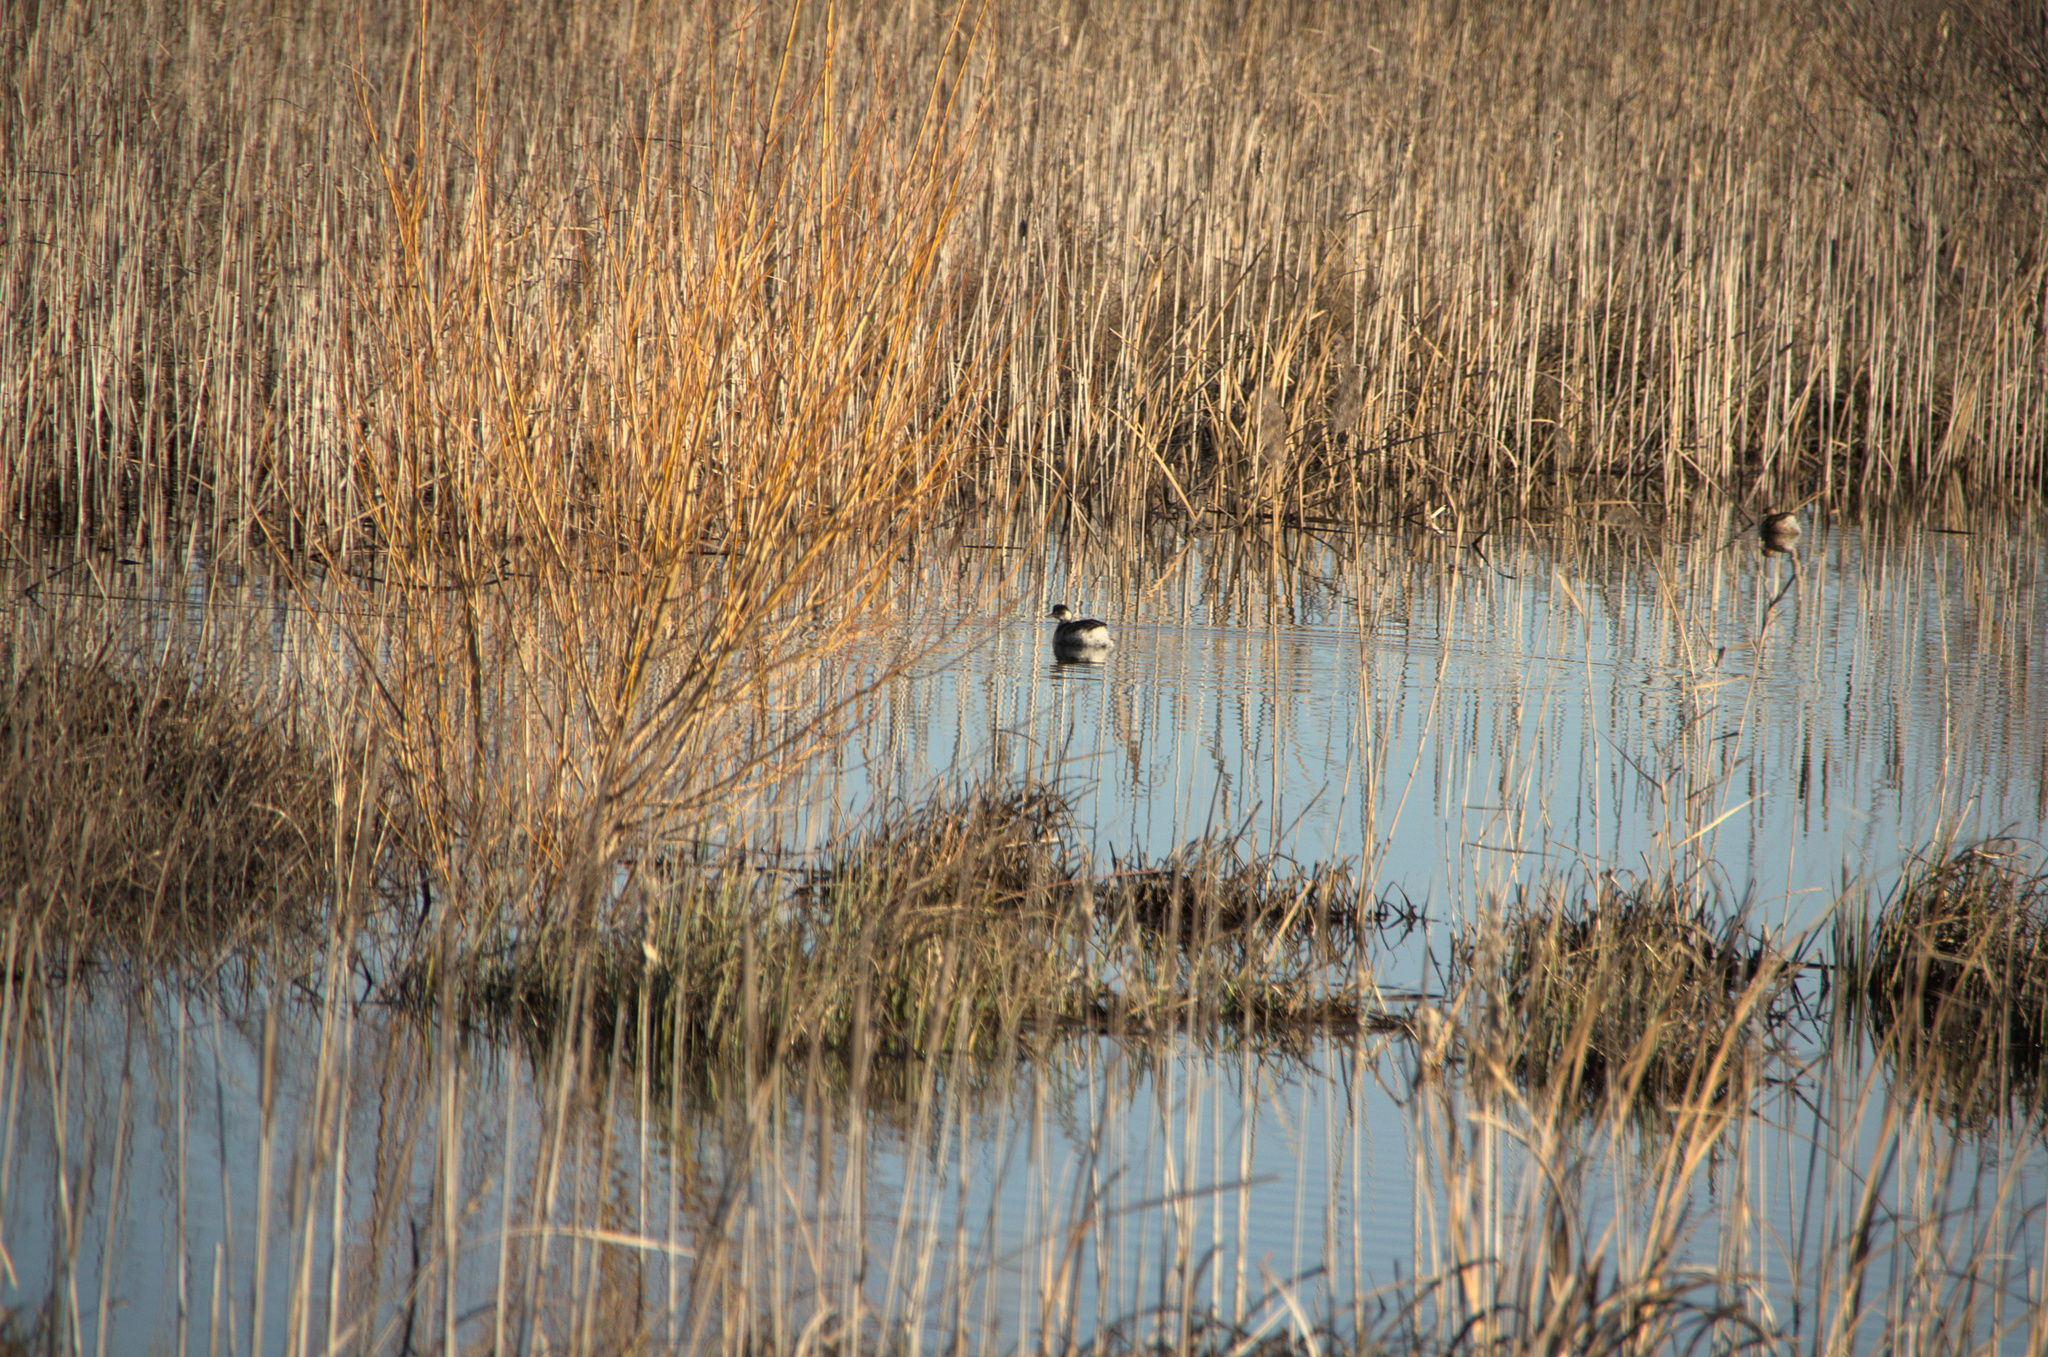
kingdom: Animalia
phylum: Chordata
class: Aves
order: Podicipediformes
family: Podicipedidae
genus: Podiceps
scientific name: Podiceps nigricollis
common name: Black-necked grebe
